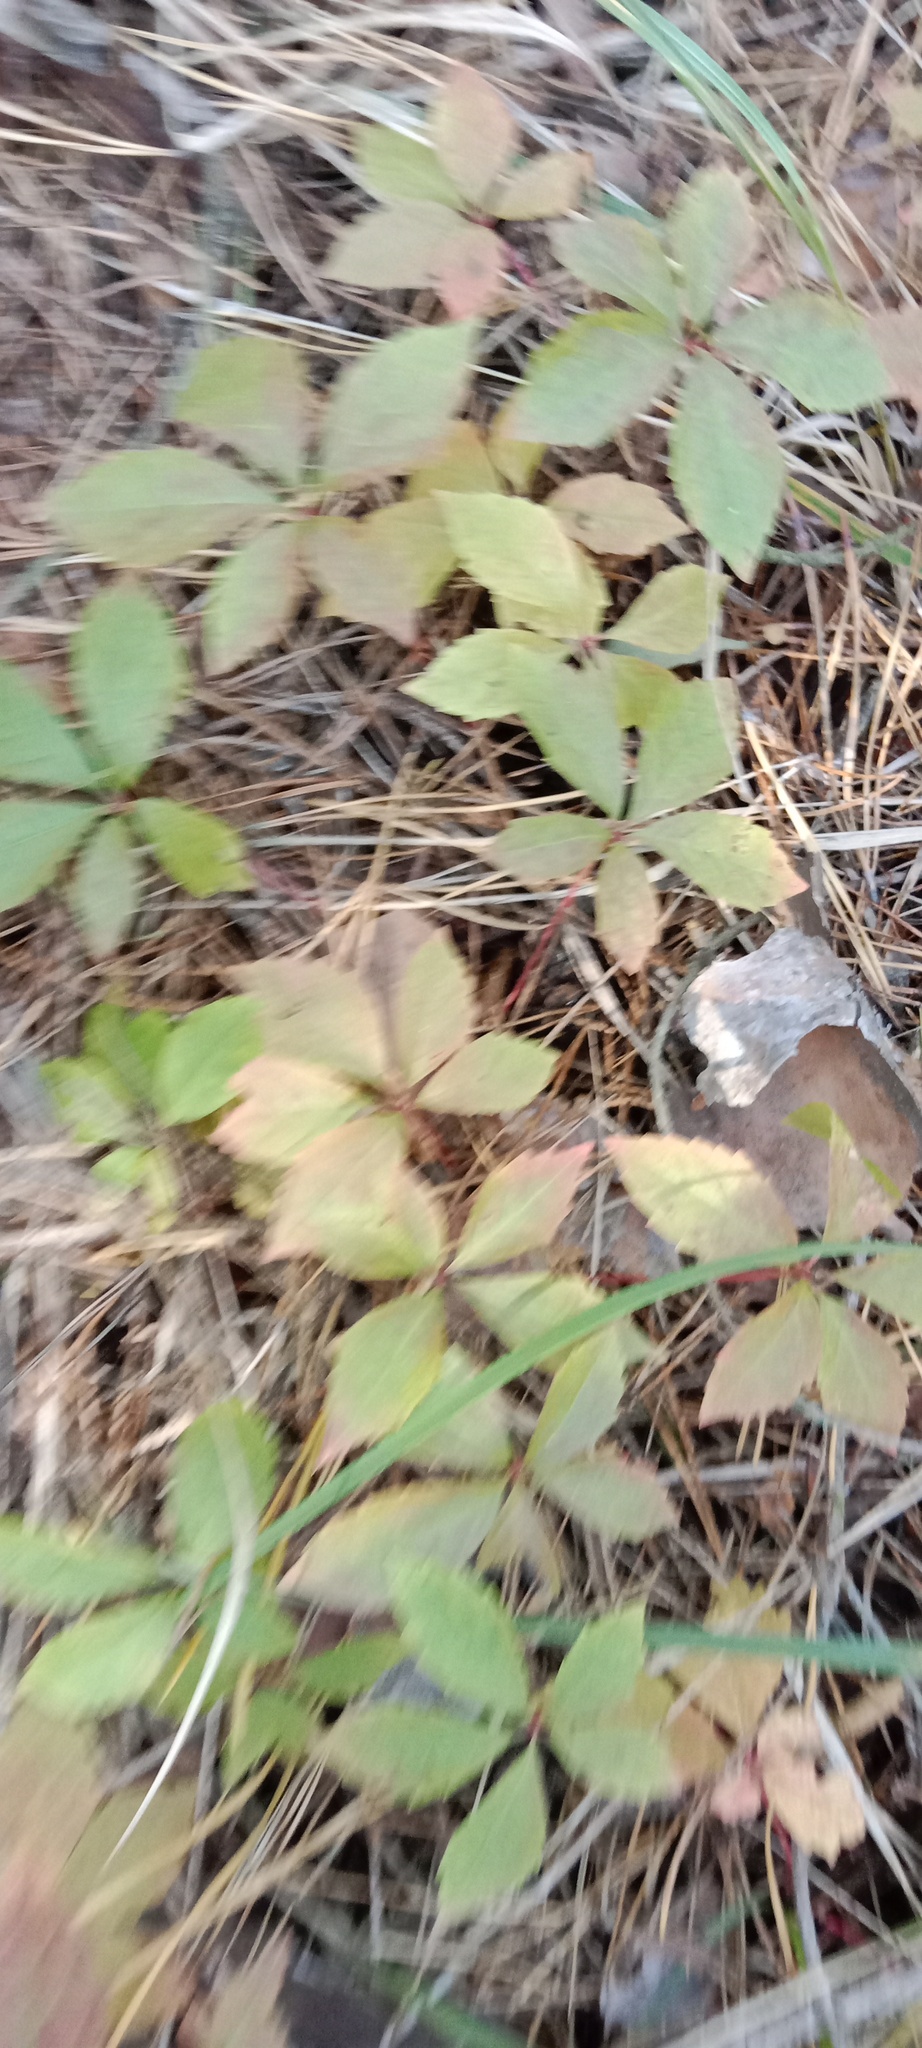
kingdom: Plantae
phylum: Tracheophyta
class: Magnoliopsida
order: Vitales
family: Vitaceae
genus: Parthenocissus
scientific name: Parthenocissus quinquefolia
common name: Virginia-creeper
